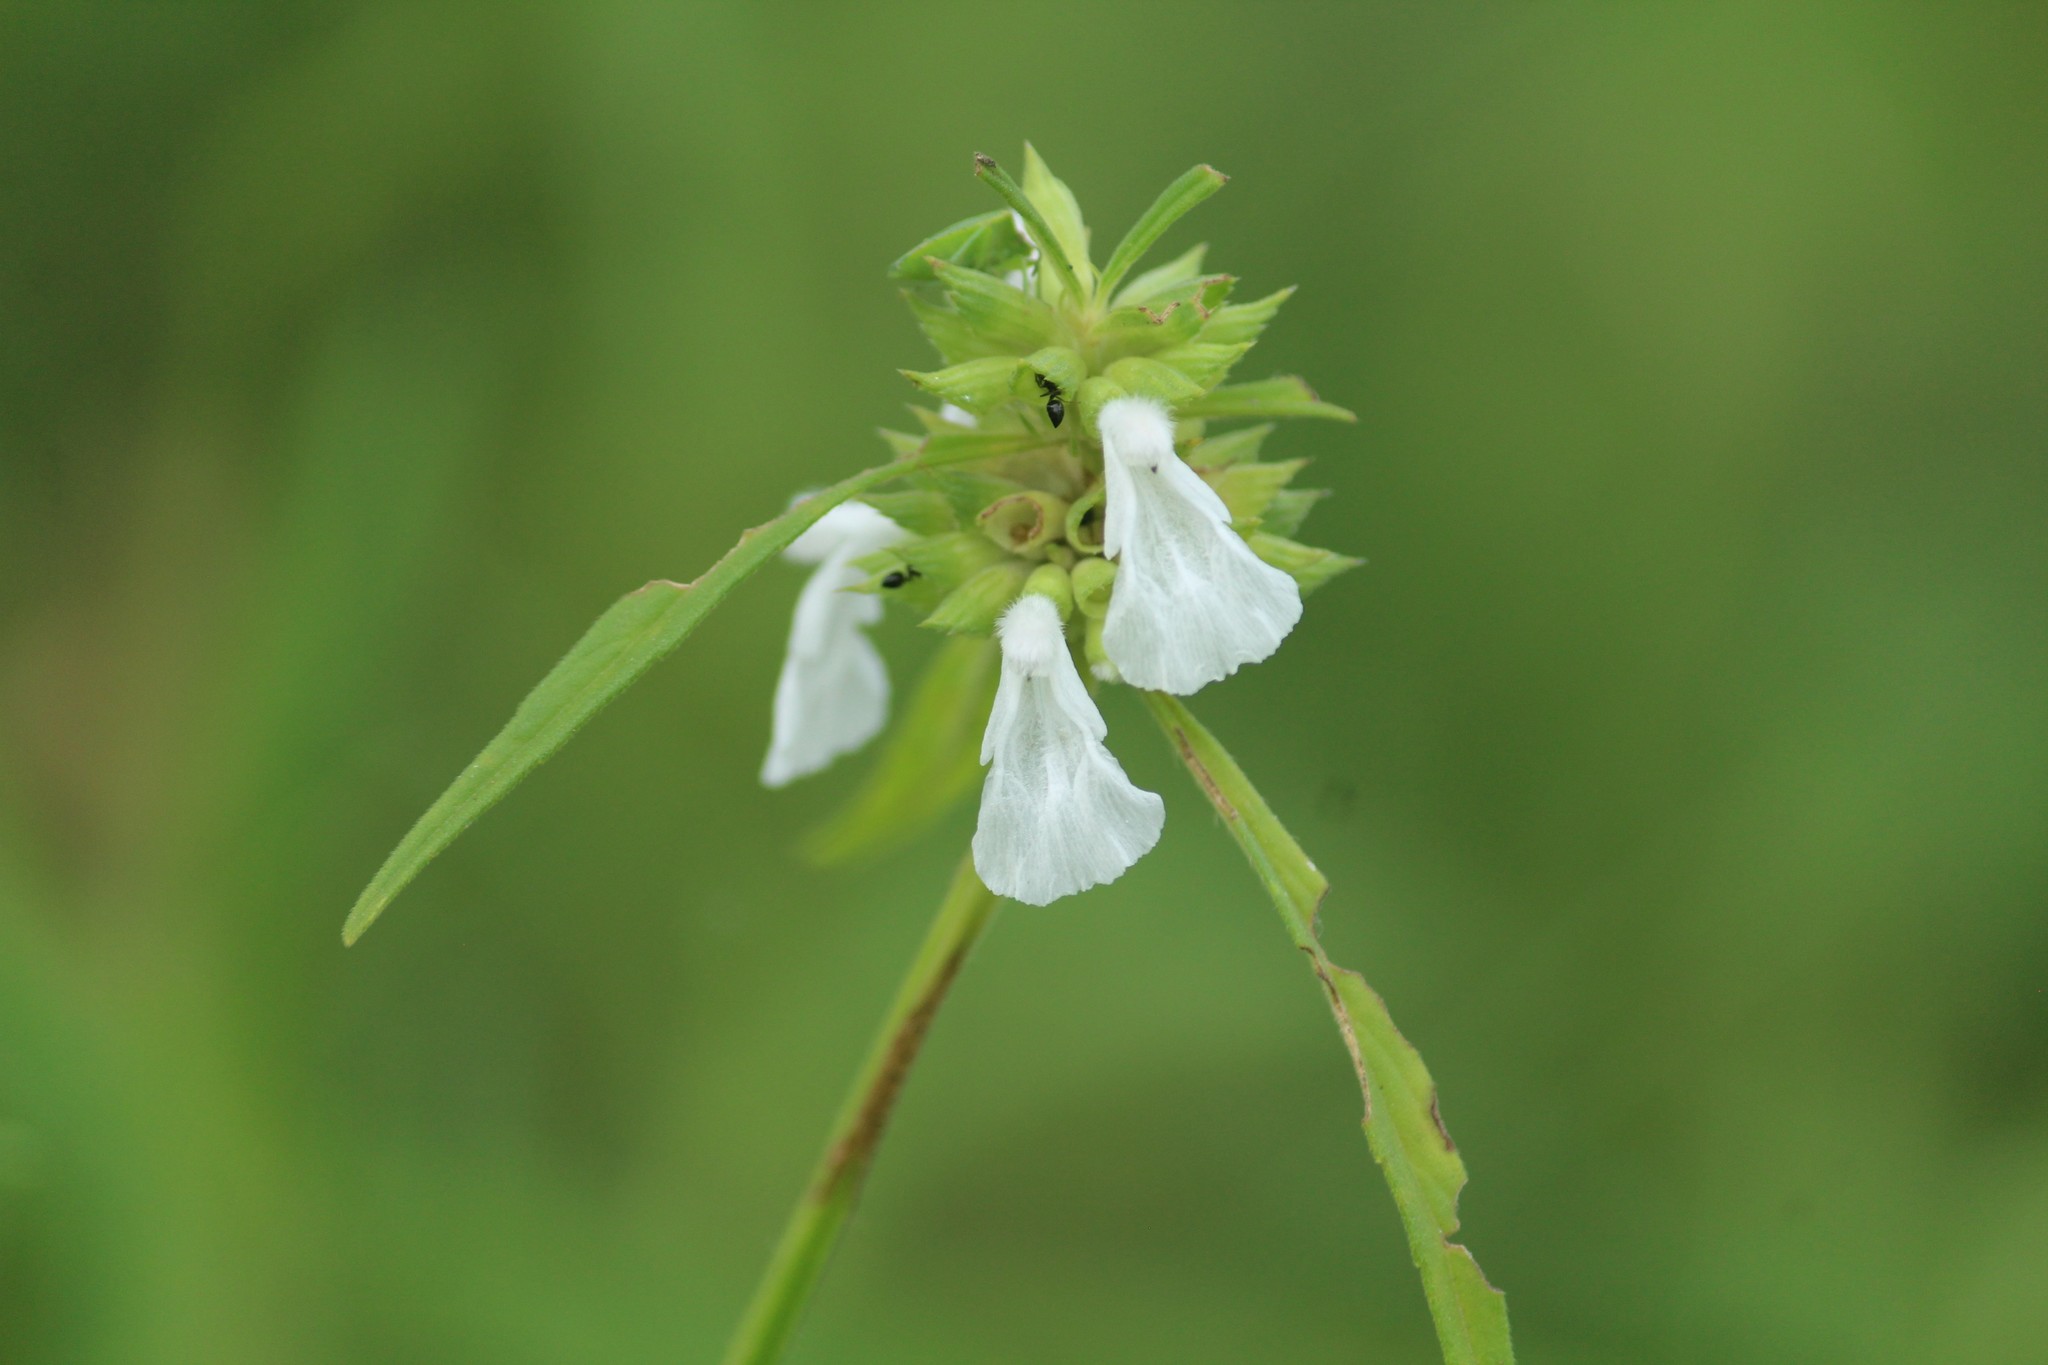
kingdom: Plantae
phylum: Tracheophyta
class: Magnoliopsida
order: Lamiales
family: Lamiaceae
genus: Leucas
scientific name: Leucas aspera
